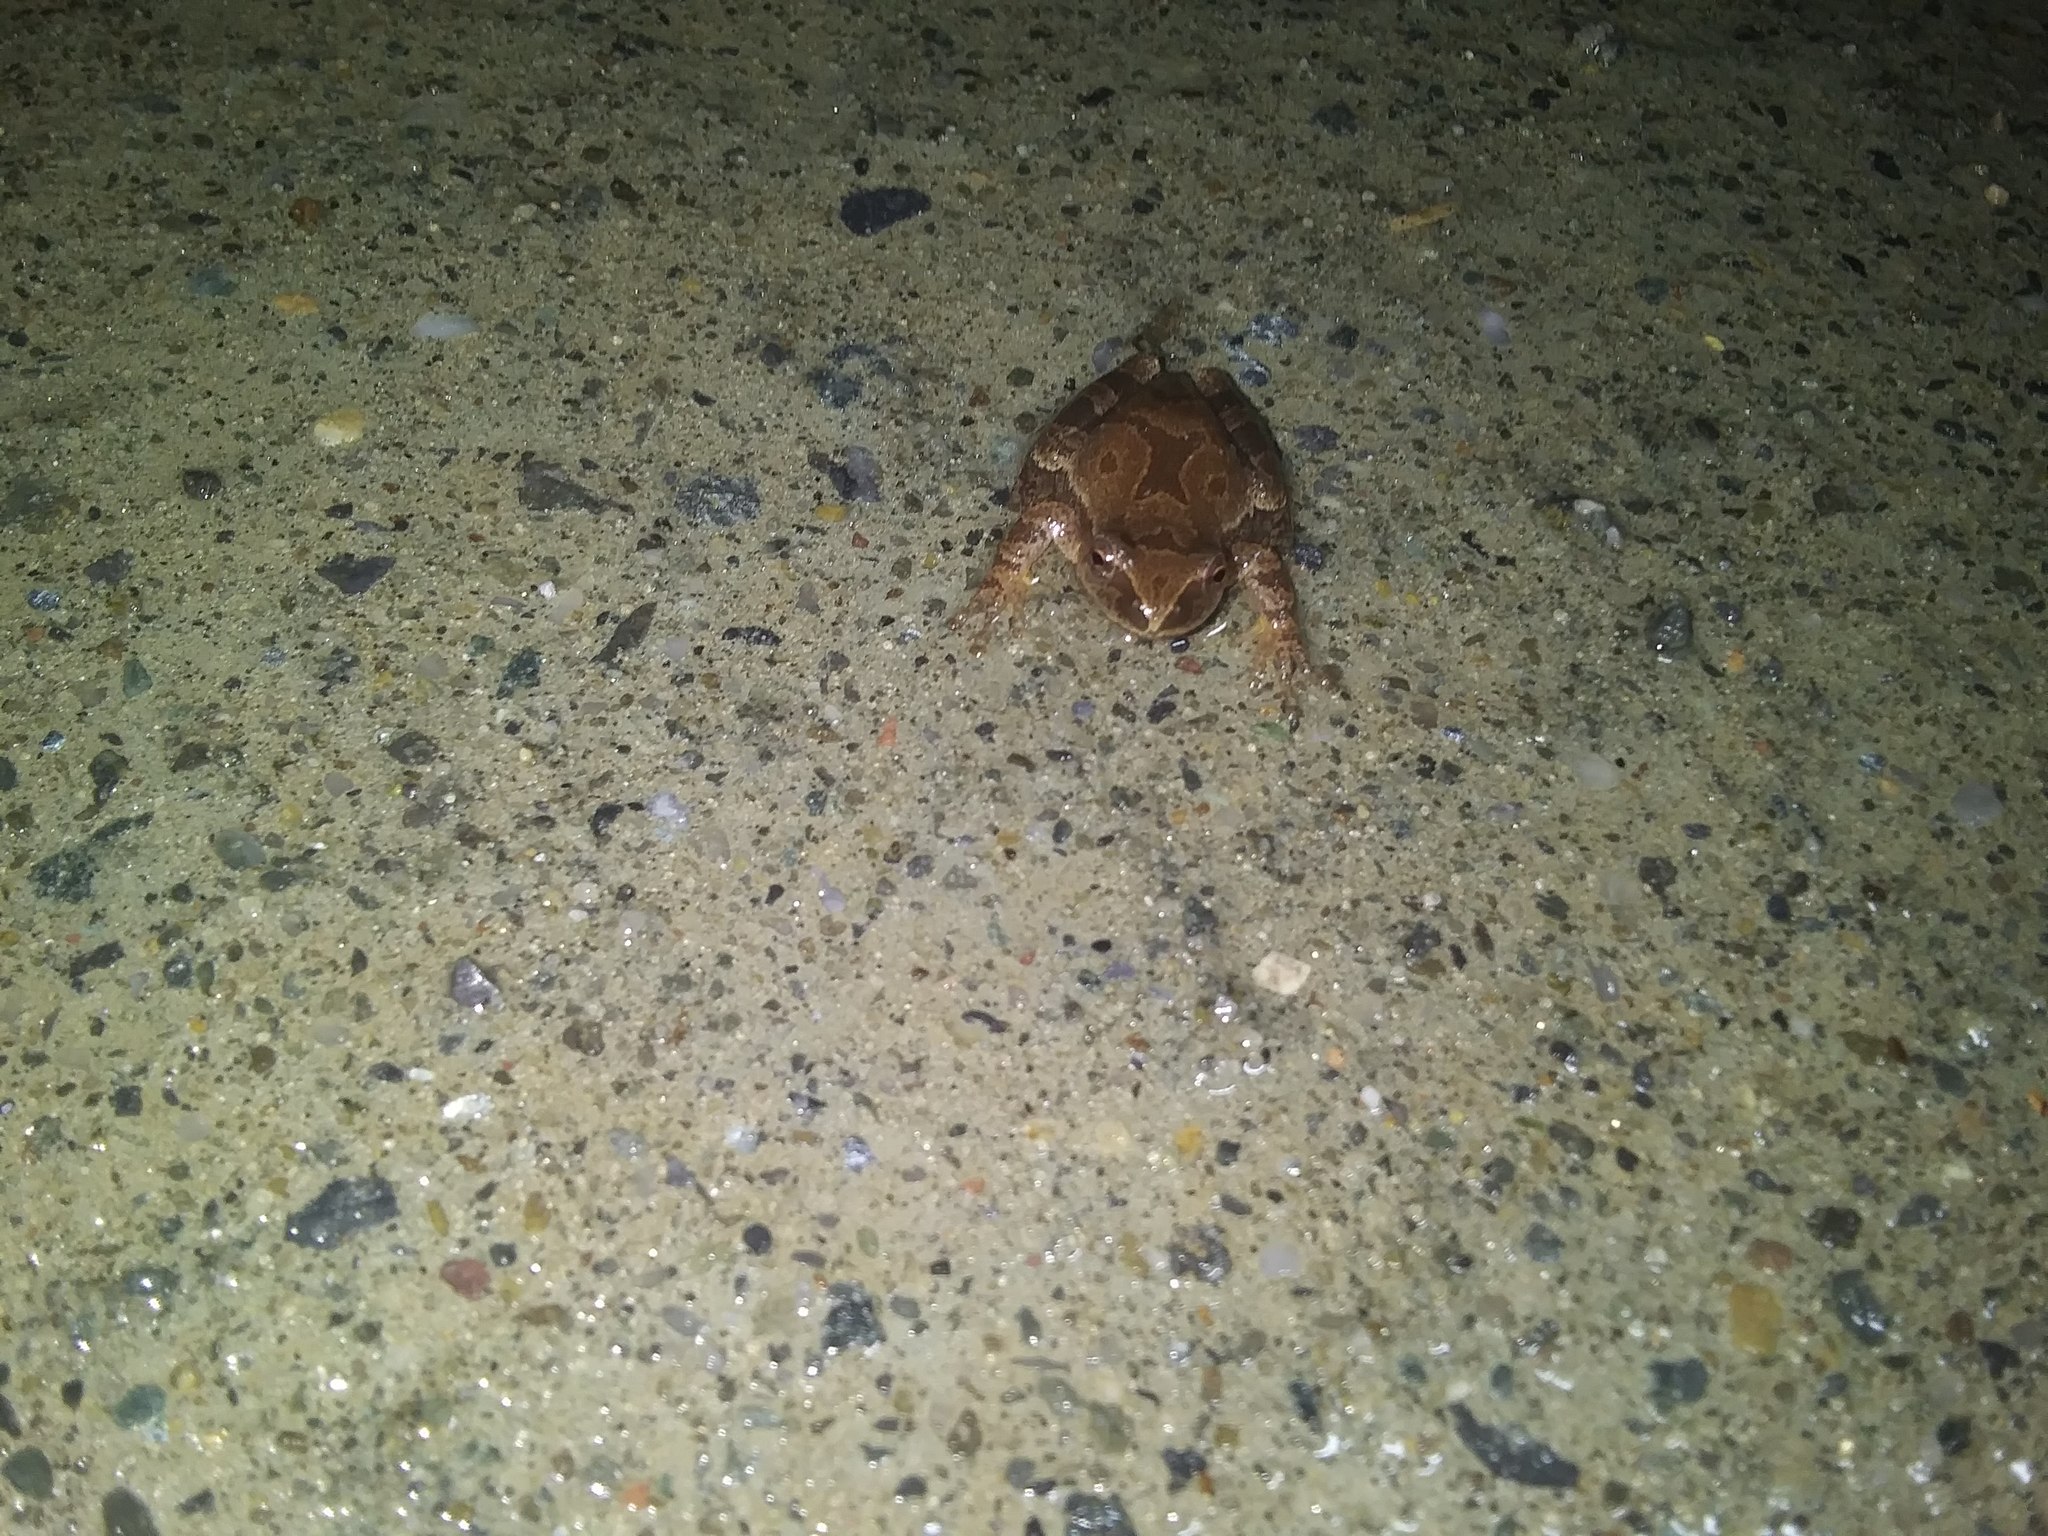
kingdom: Animalia
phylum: Chordata
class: Amphibia
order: Anura
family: Hylidae
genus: Pseudacris
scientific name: Pseudacris crucifer
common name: Spring peeper
